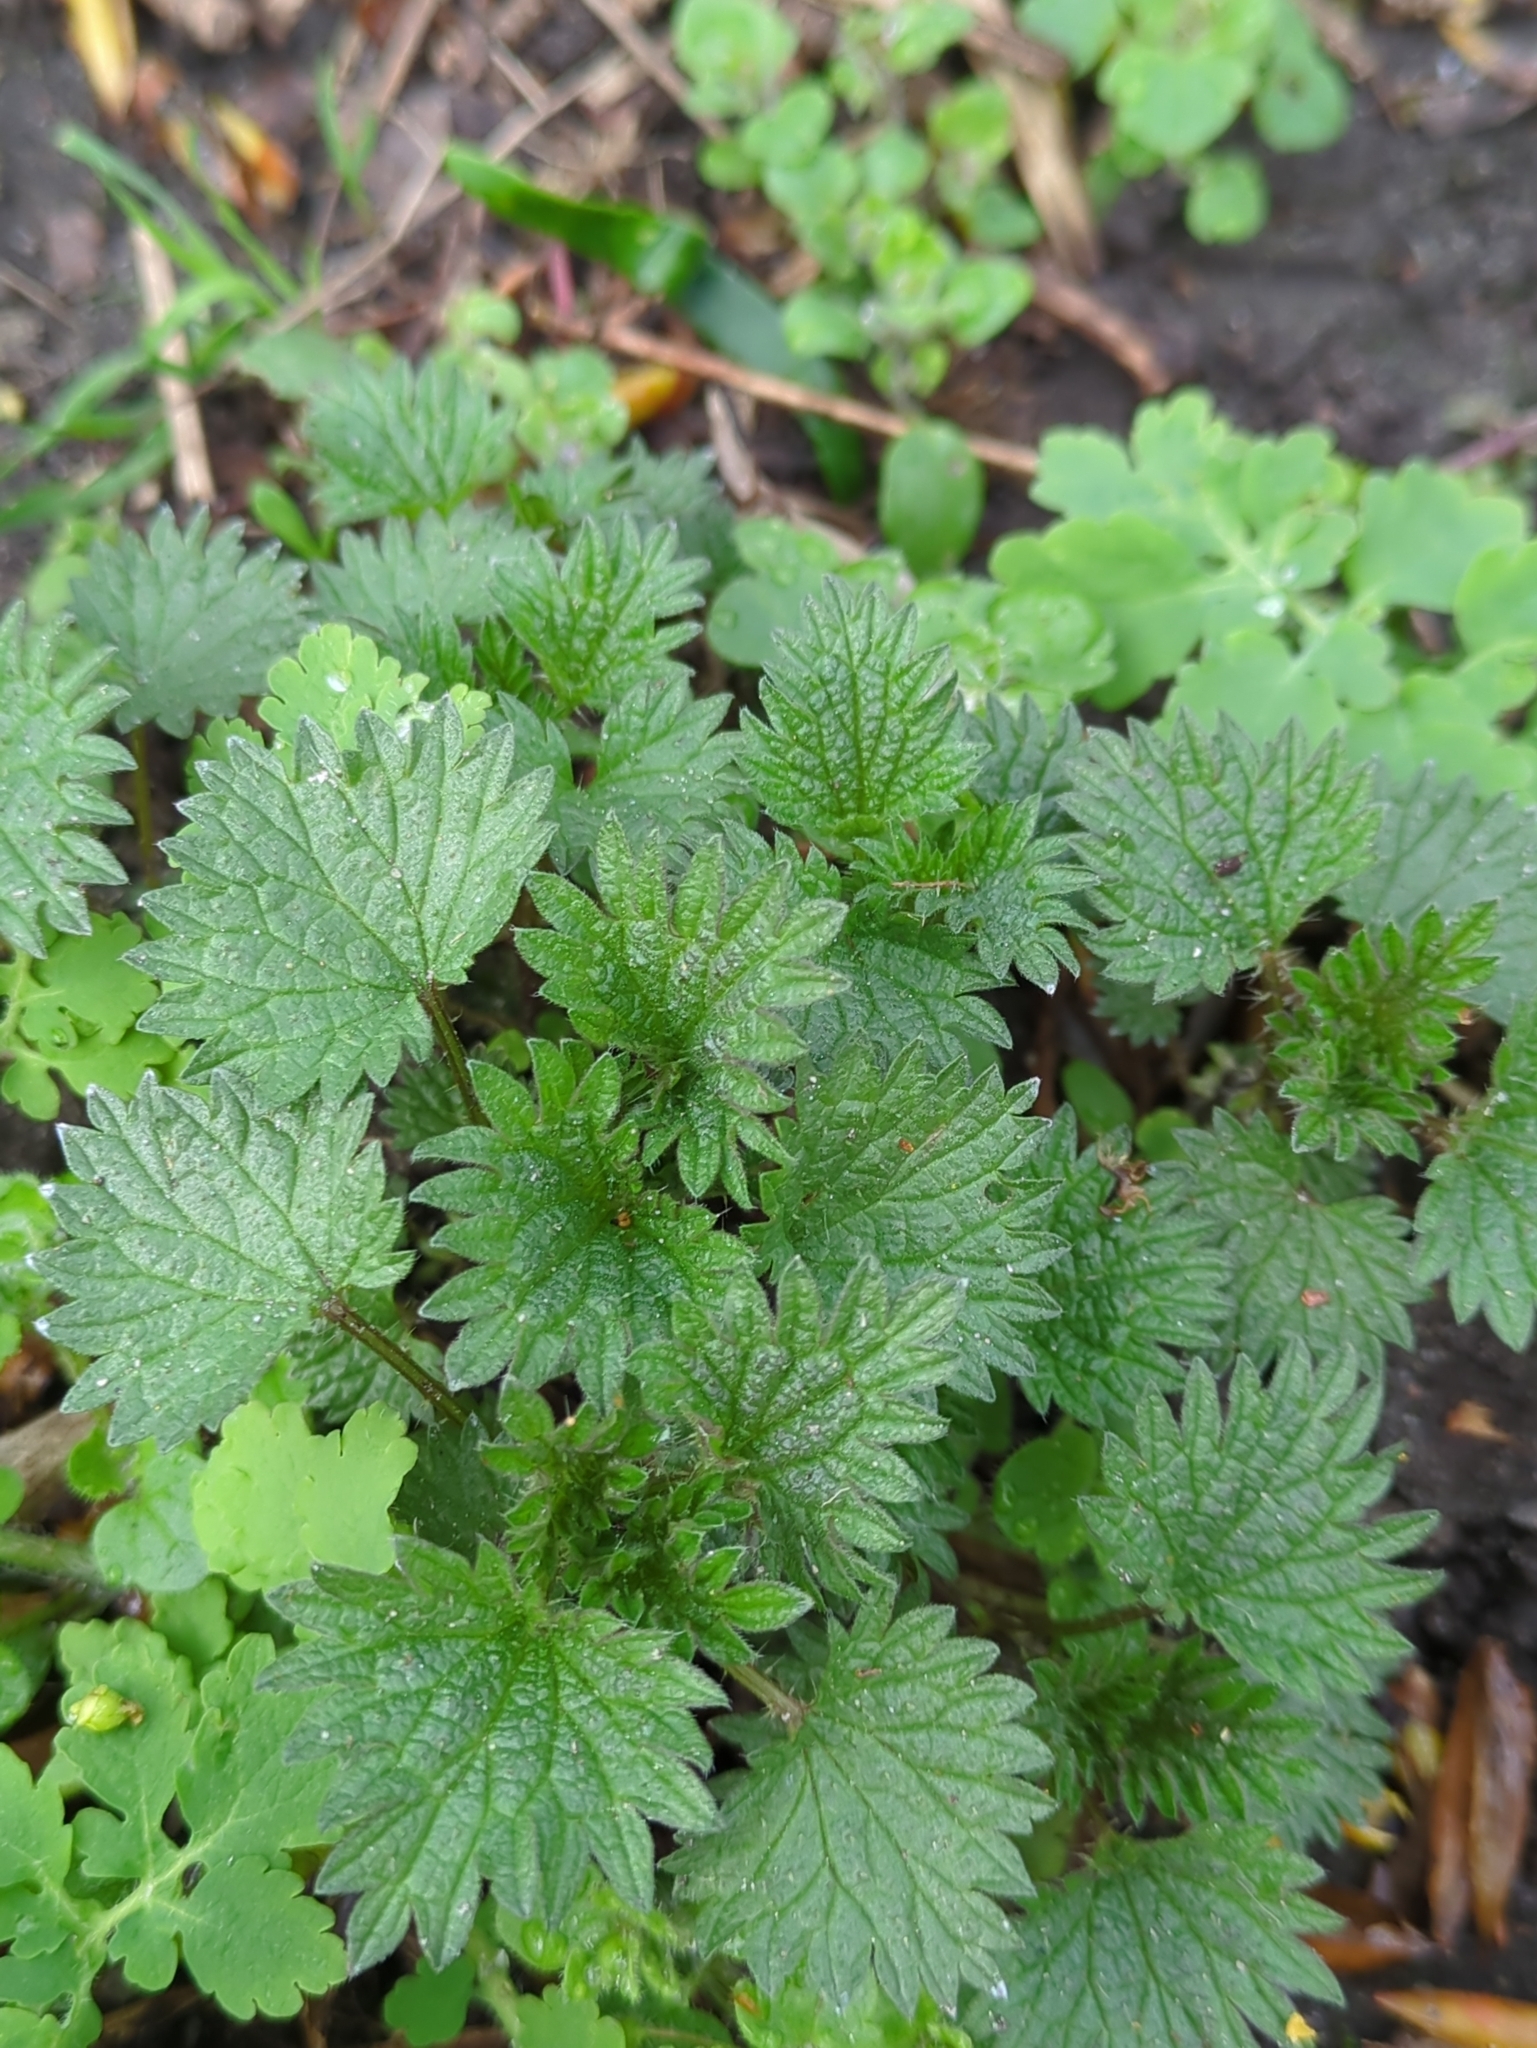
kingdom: Plantae
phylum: Tracheophyta
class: Magnoliopsida
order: Rosales
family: Urticaceae
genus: Urtica
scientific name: Urtica dioica
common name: Common nettle
